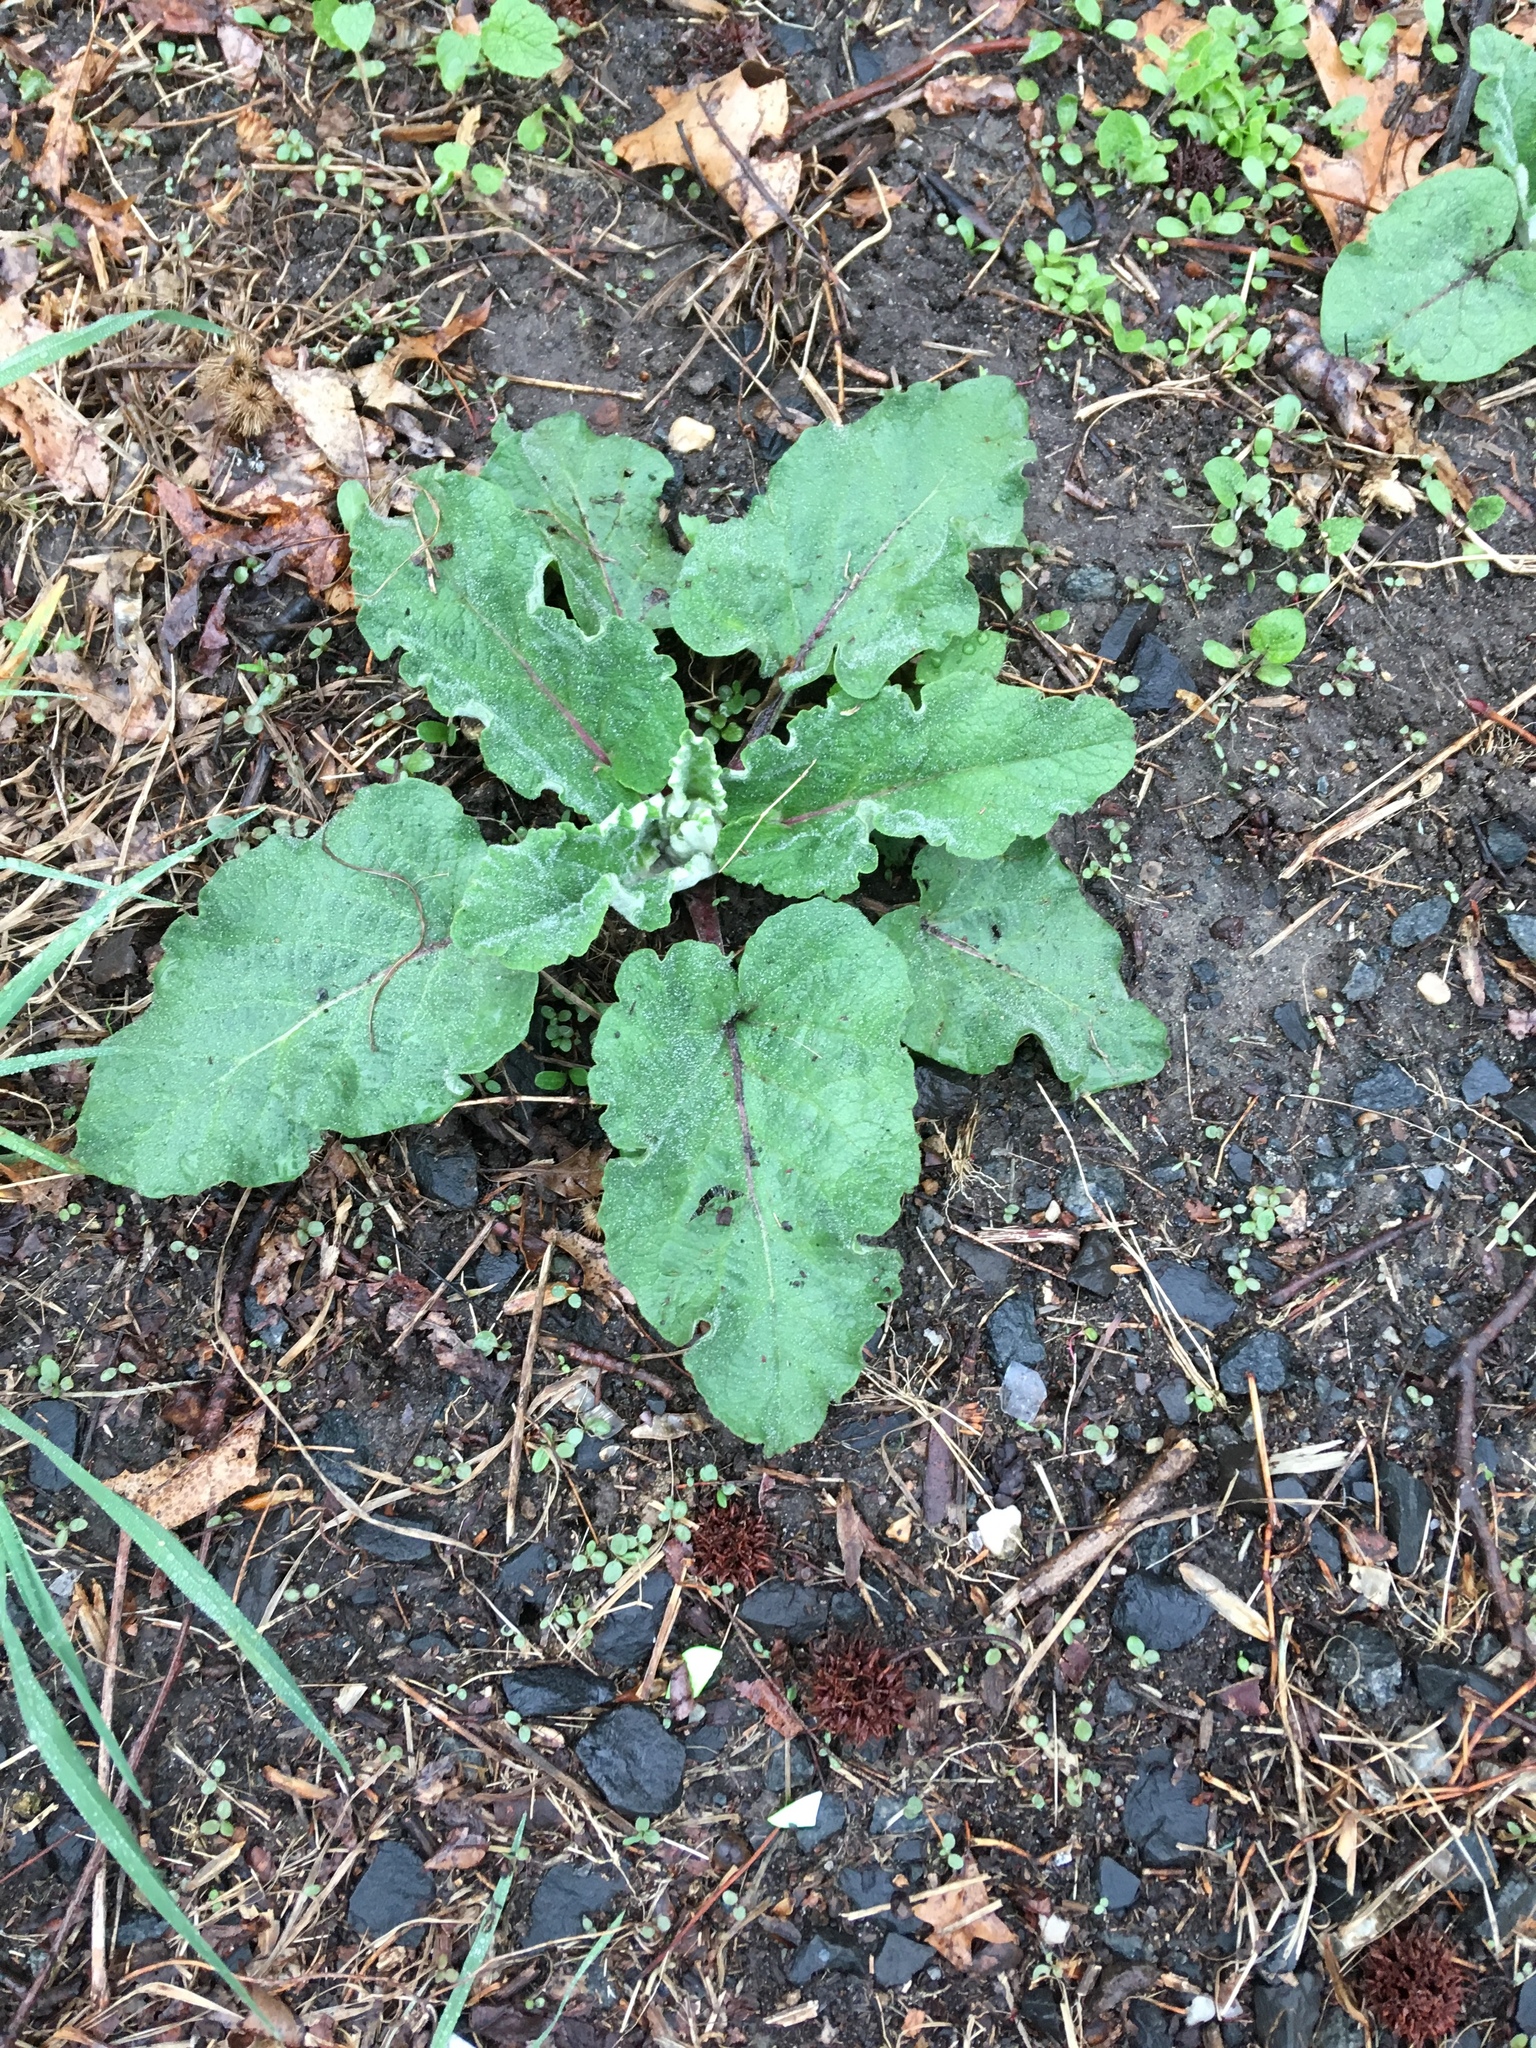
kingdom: Plantae
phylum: Tracheophyta
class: Magnoliopsida
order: Asterales
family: Asteraceae
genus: Arctium
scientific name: Arctium
